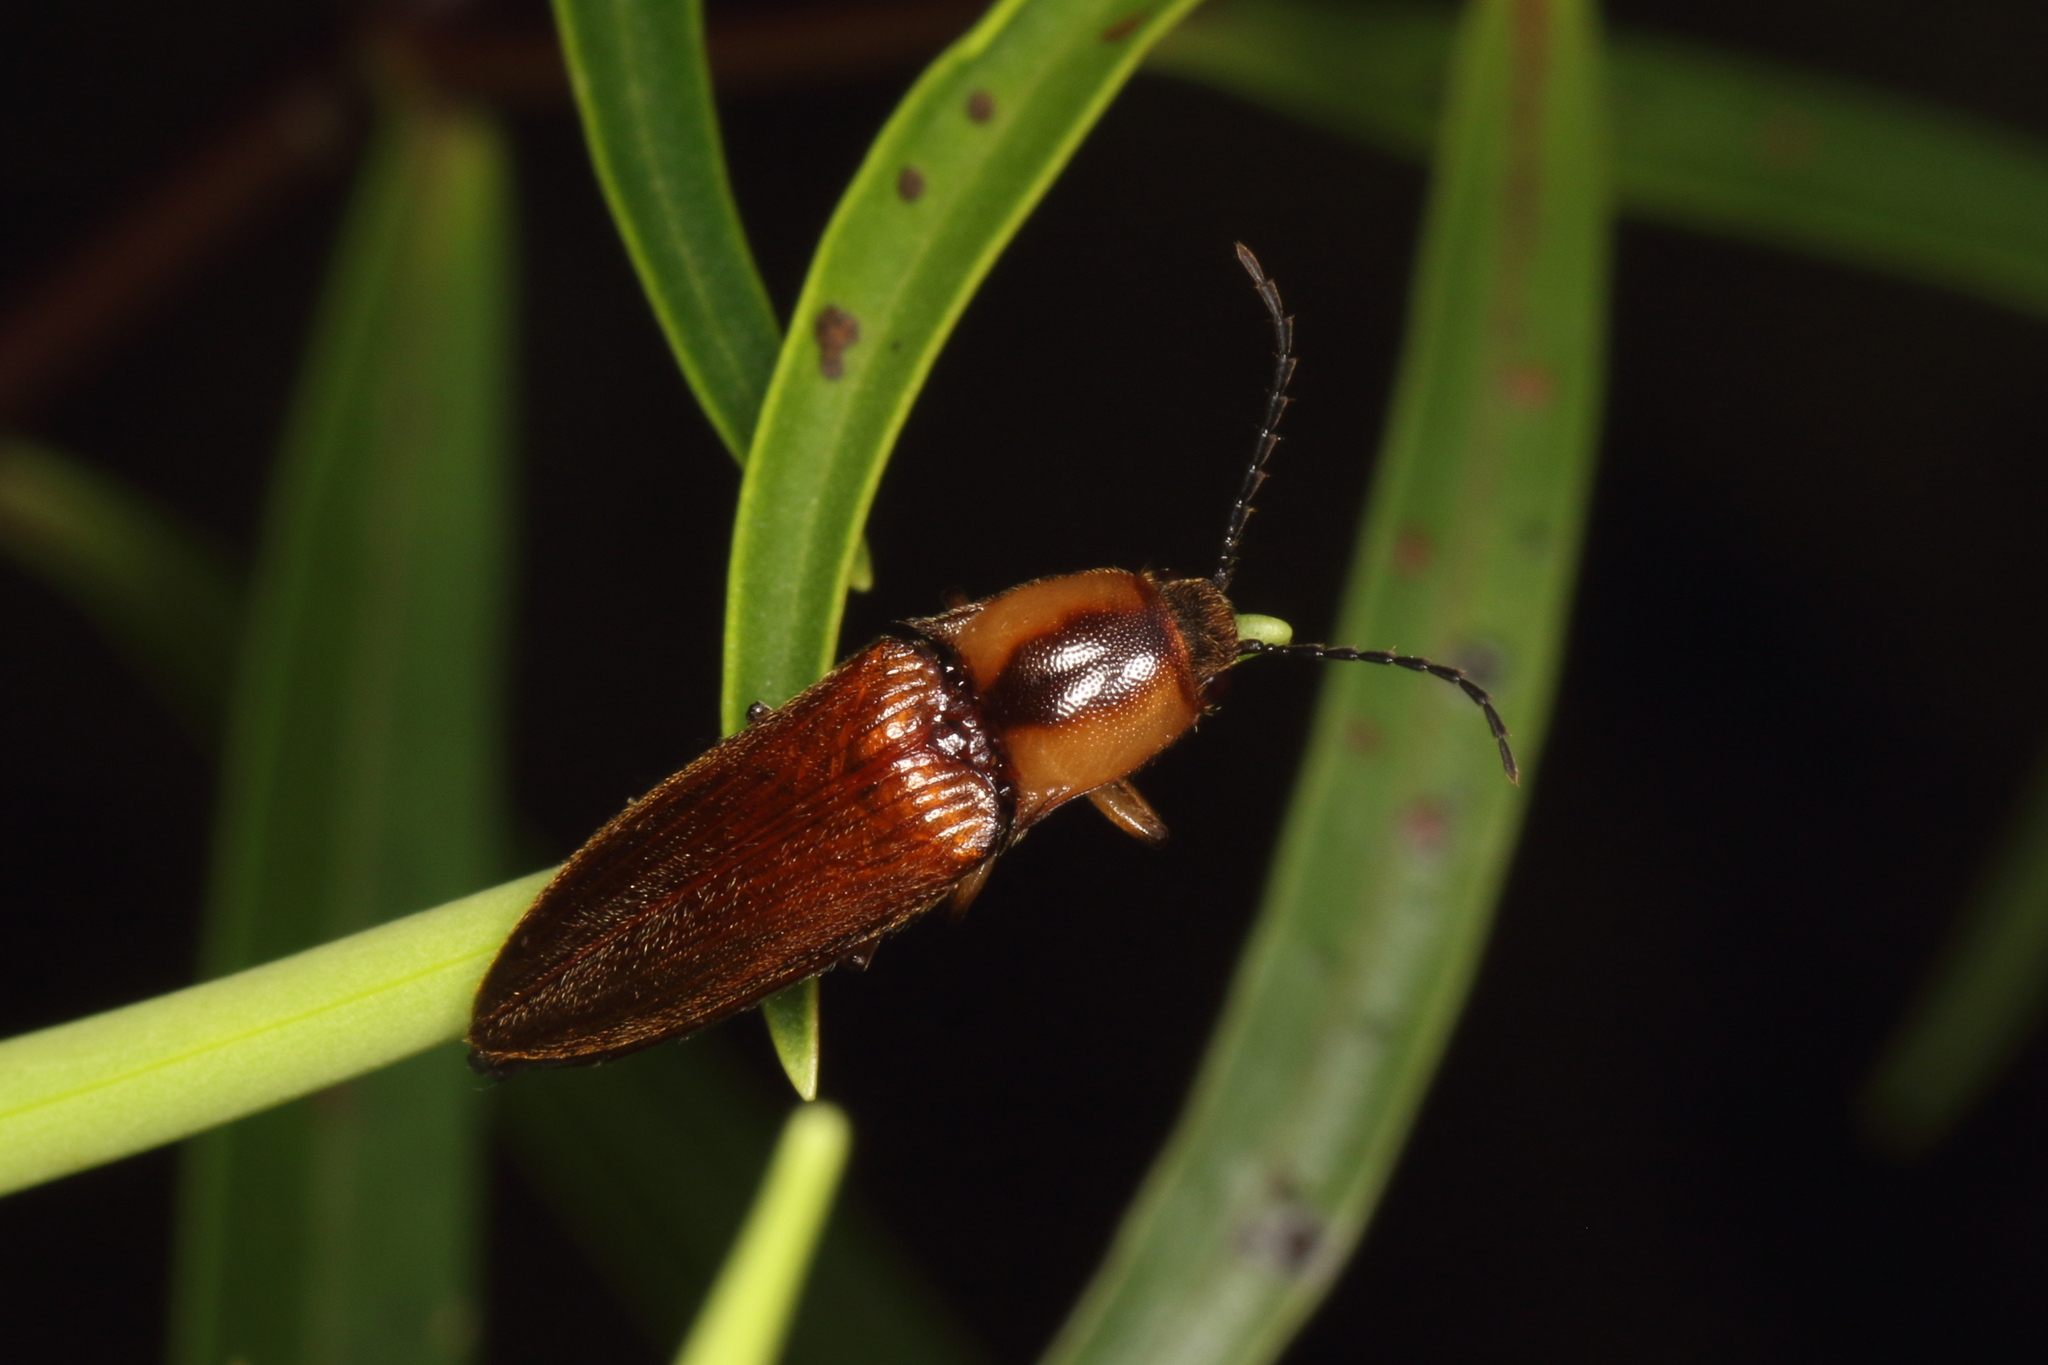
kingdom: Animalia
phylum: Arthropoda
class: Insecta
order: Coleoptera
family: Elateridae
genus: Sphaenelater
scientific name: Sphaenelater
